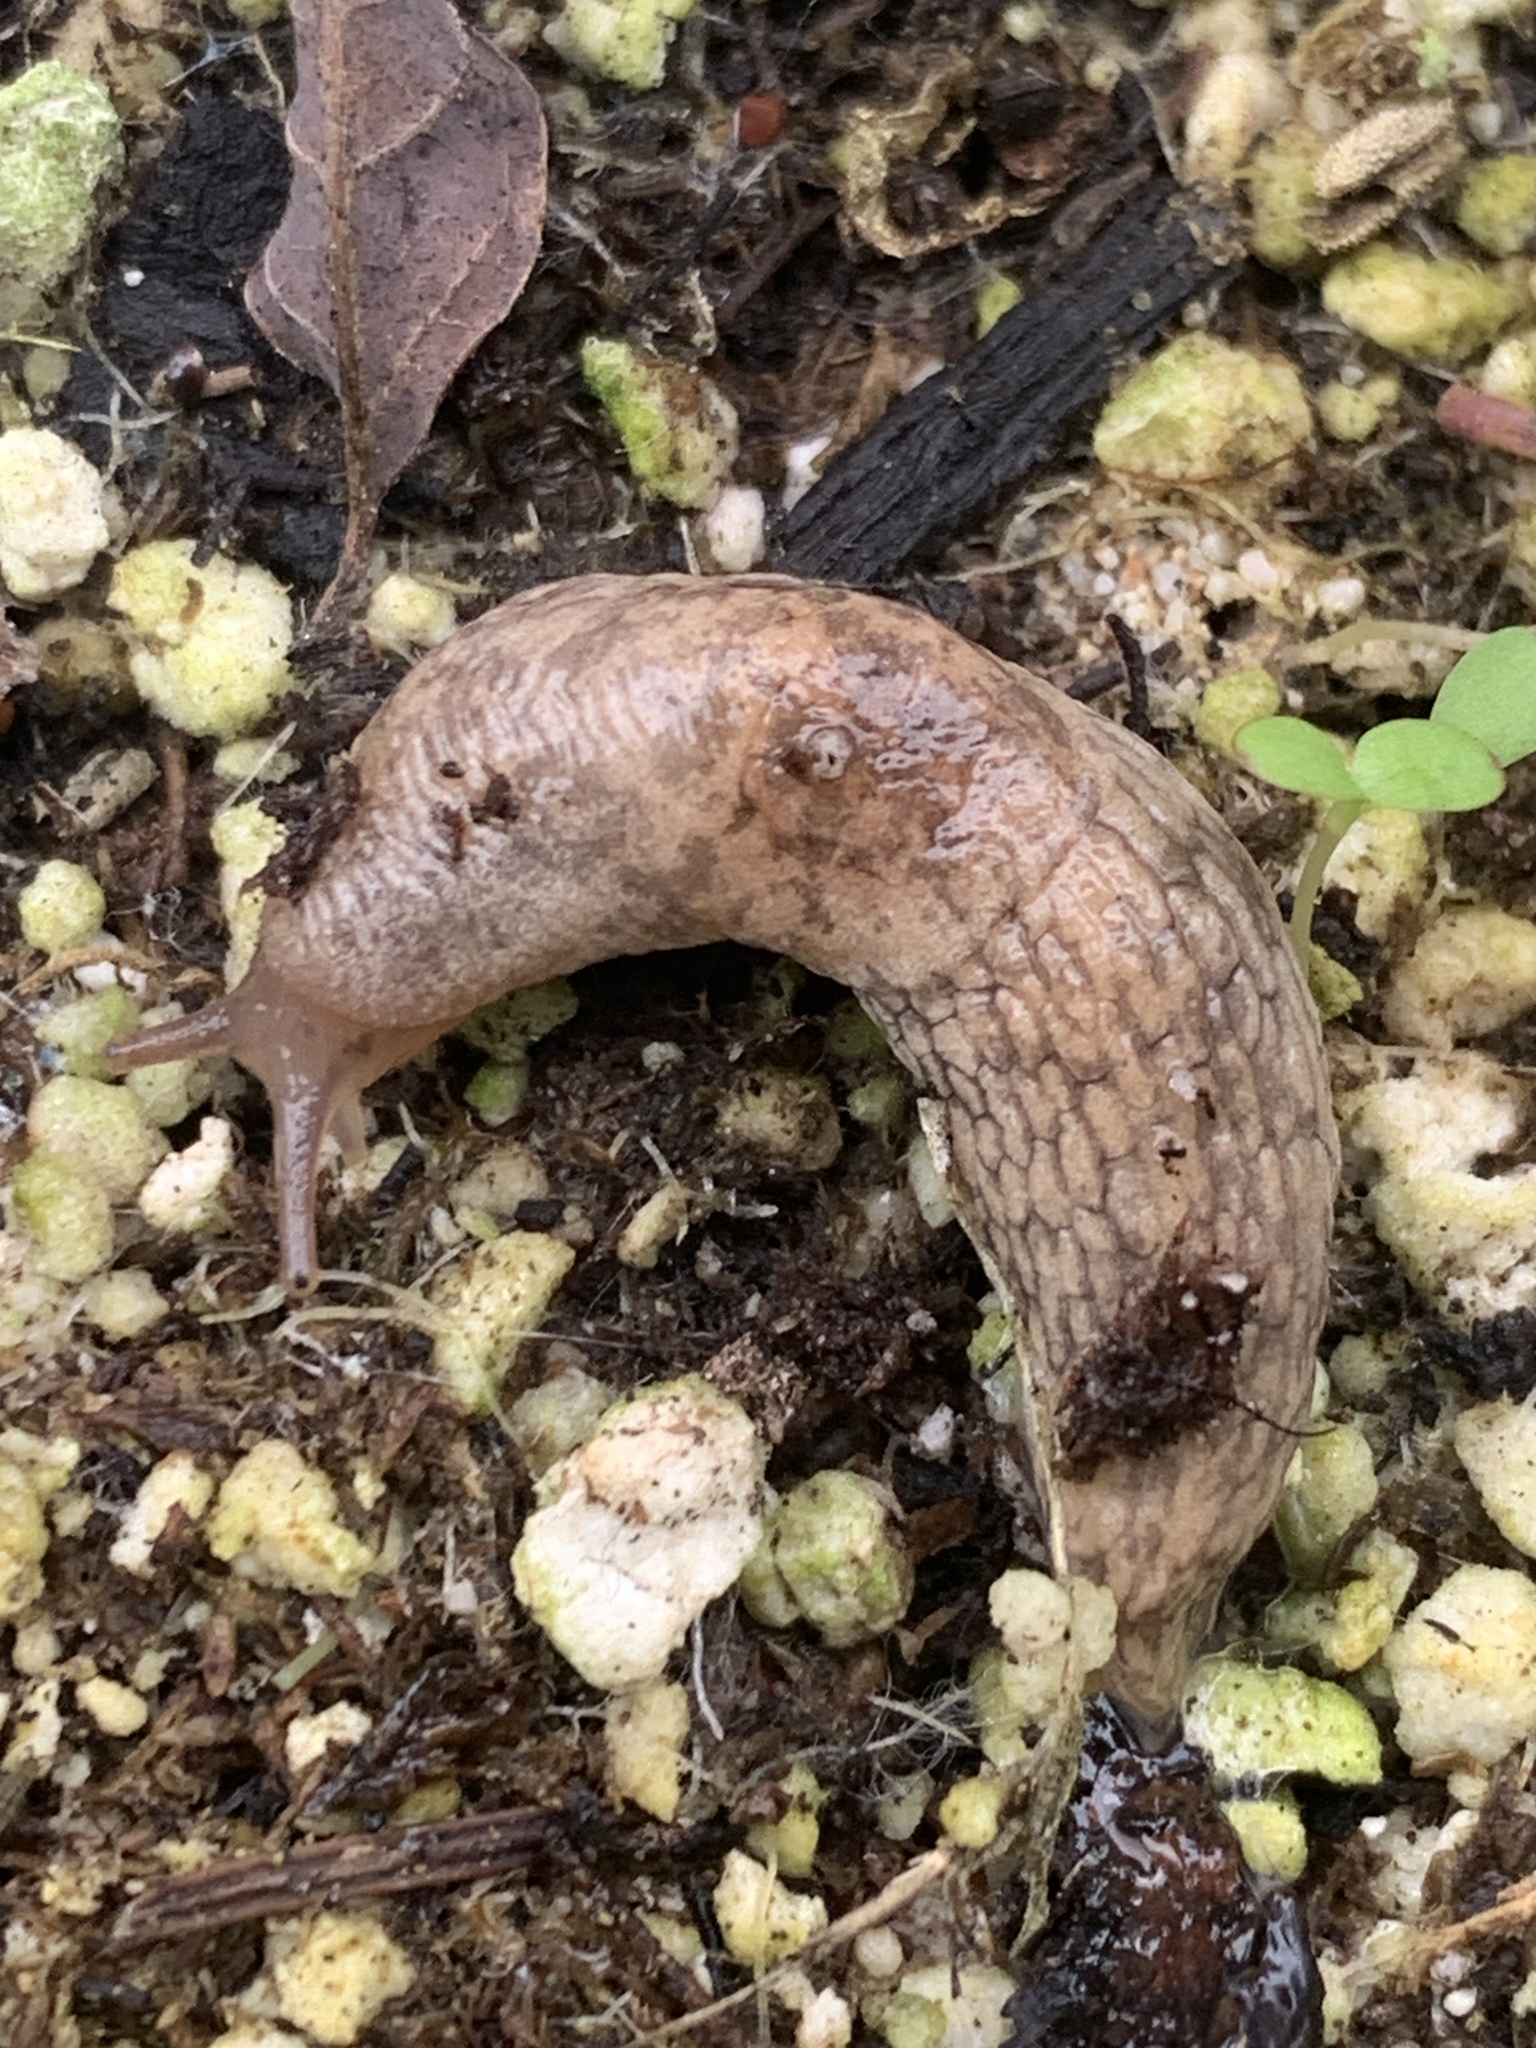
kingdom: Animalia
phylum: Mollusca
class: Gastropoda
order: Stylommatophora
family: Agriolimacidae
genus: Deroceras
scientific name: Deroceras reticulatum
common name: Gray field slug
